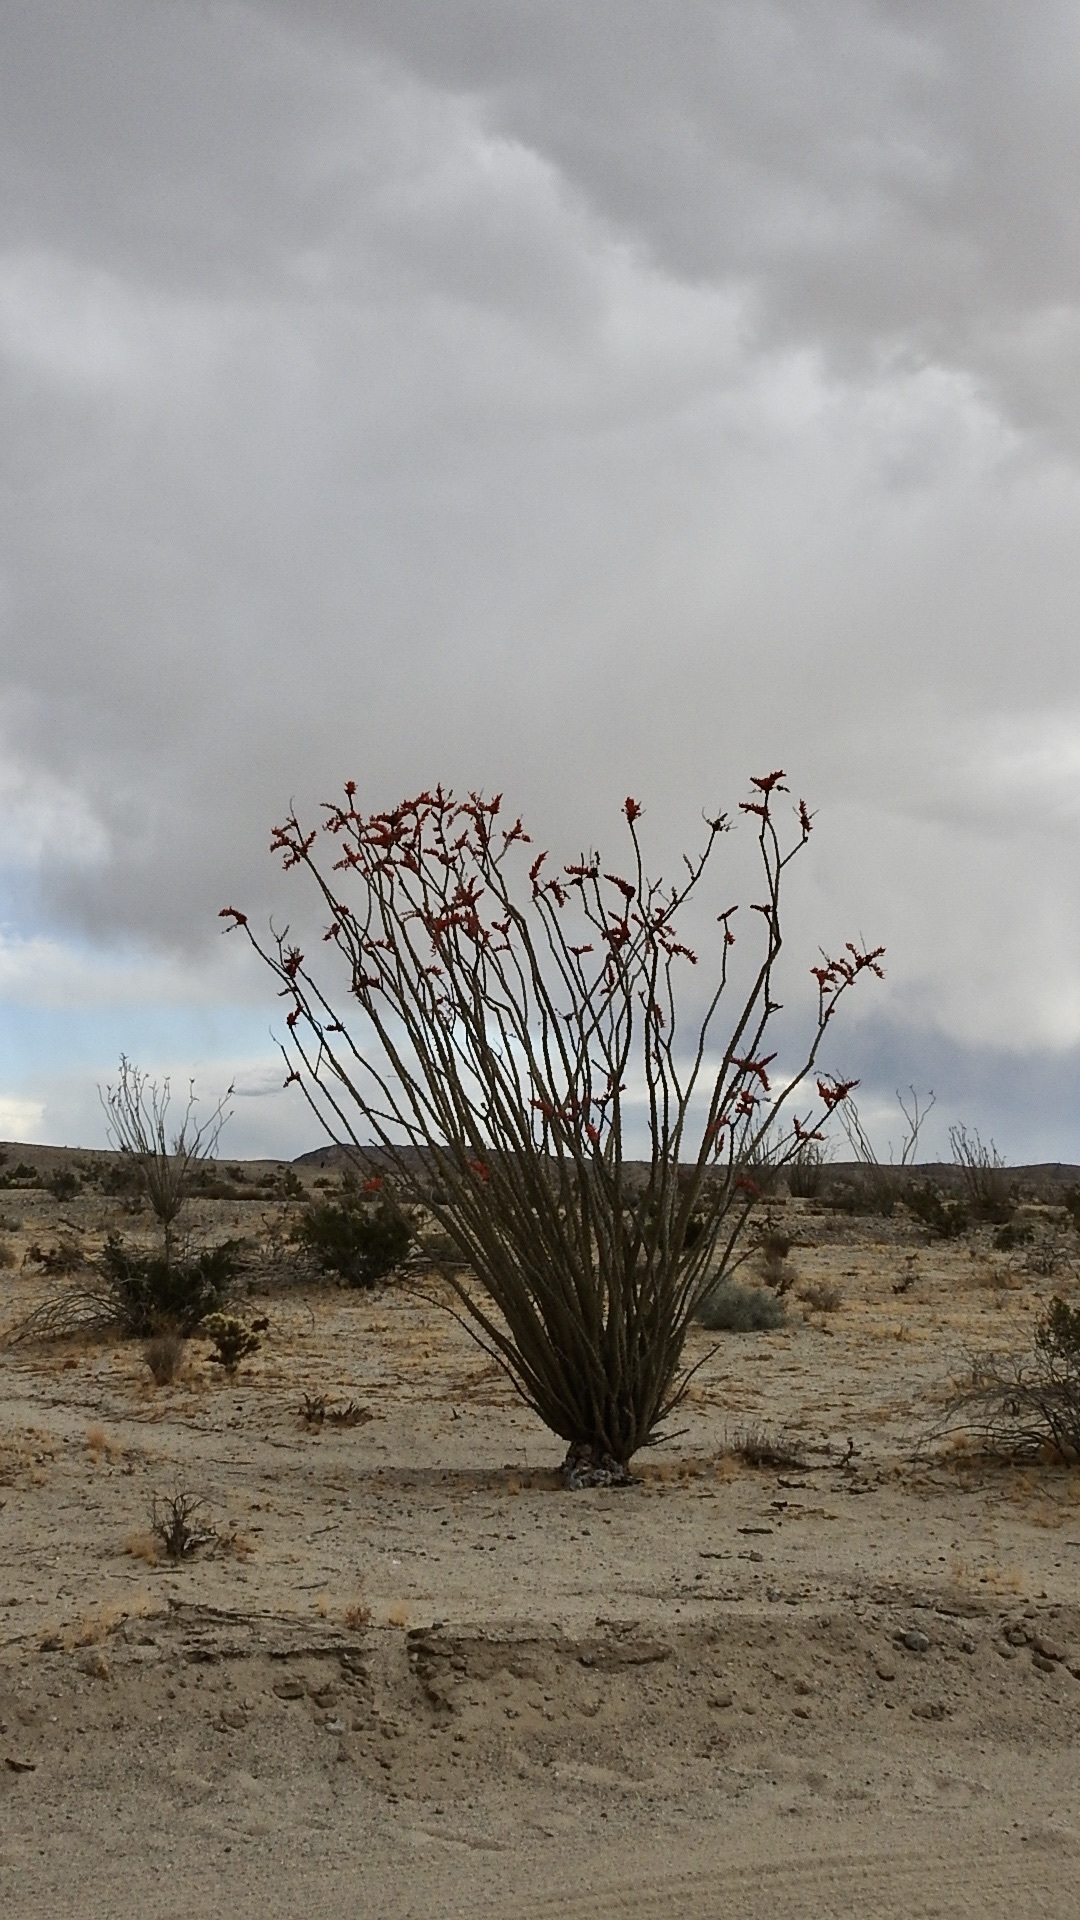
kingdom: Plantae
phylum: Tracheophyta
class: Magnoliopsida
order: Ericales
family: Fouquieriaceae
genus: Fouquieria
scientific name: Fouquieria splendens
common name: Vine-cactus
